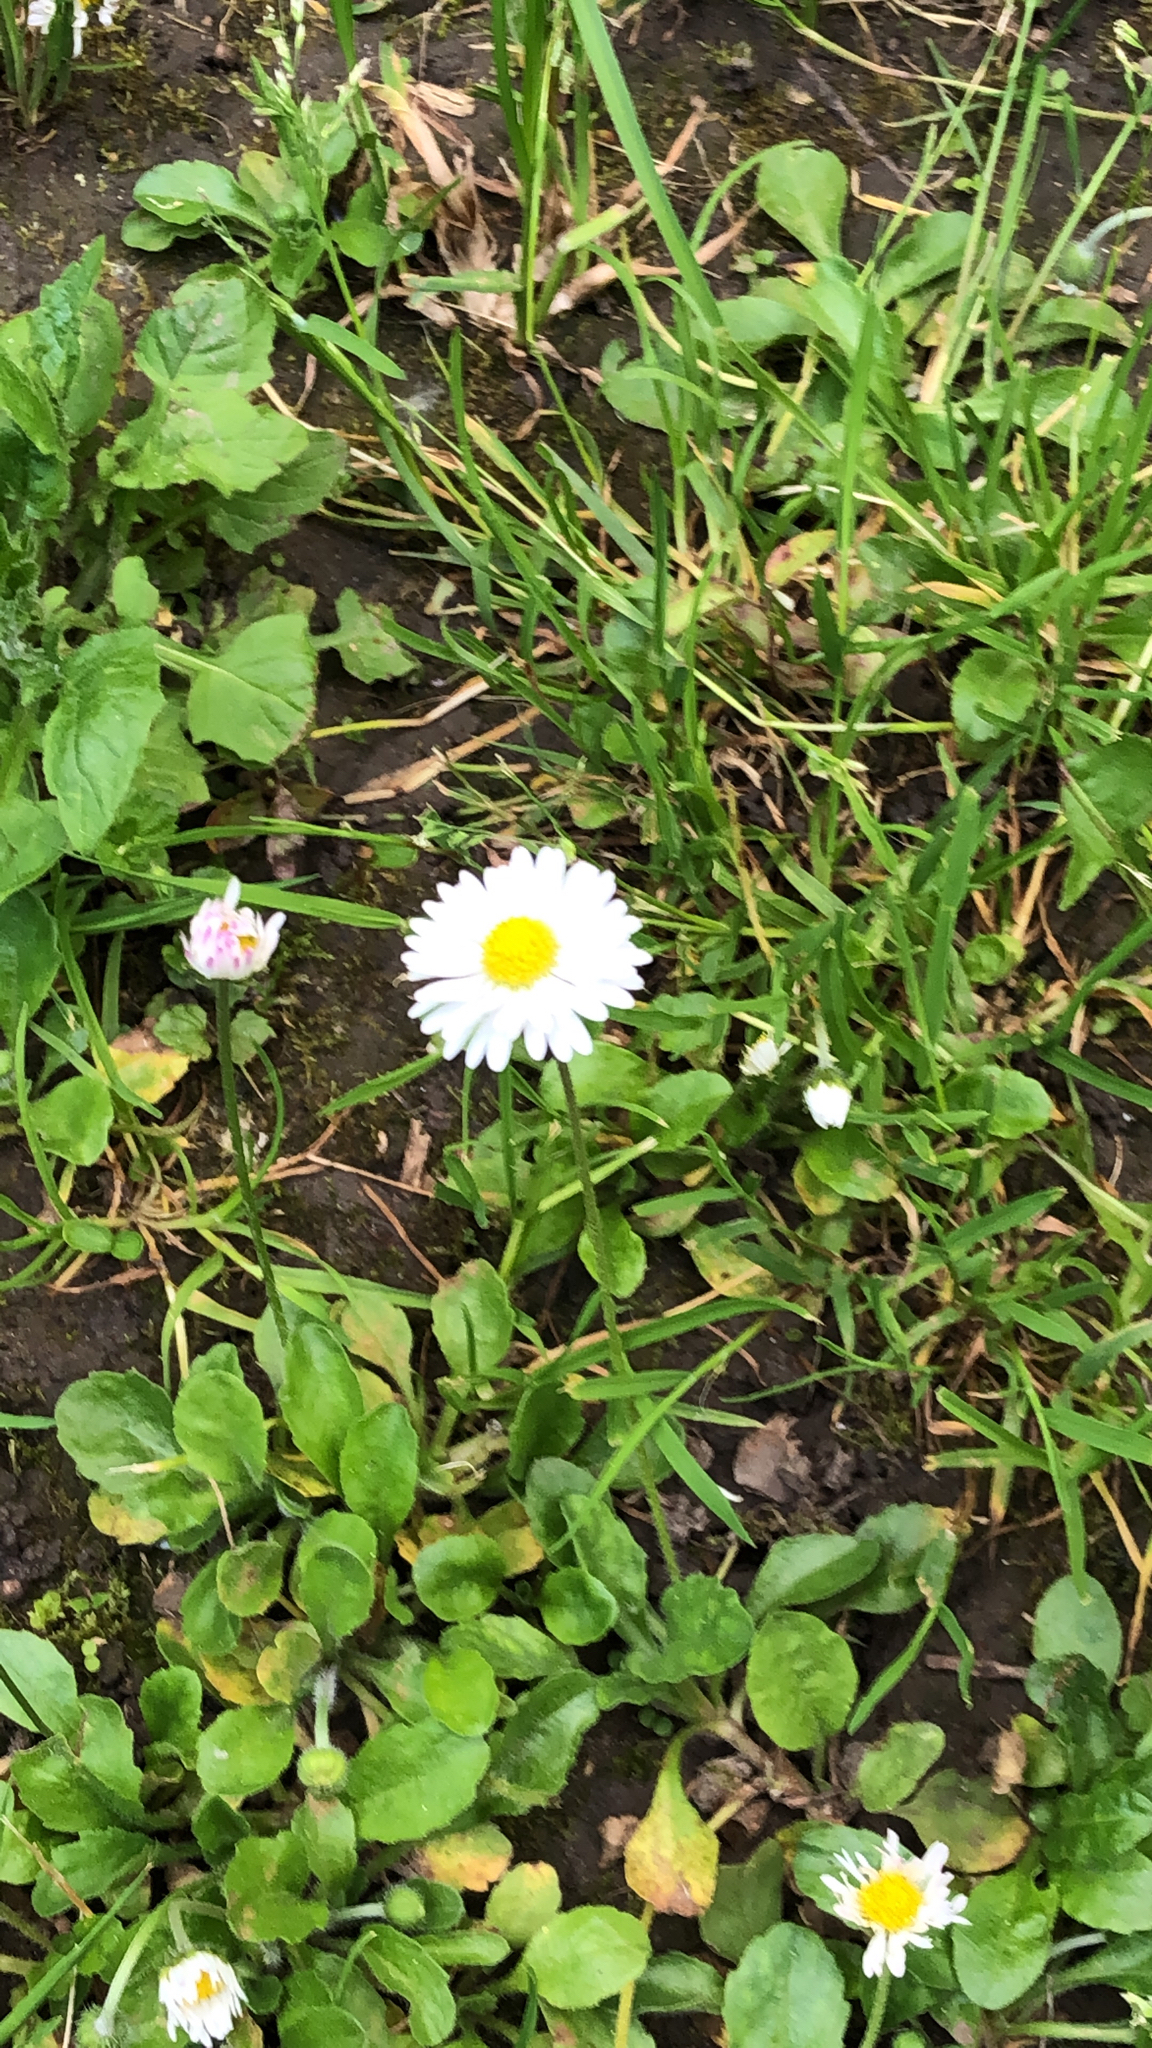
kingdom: Plantae
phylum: Tracheophyta
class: Magnoliopsida
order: Asterales
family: Asteraceae
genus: Bellis
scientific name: Bellis perennis
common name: Lawndaisy
